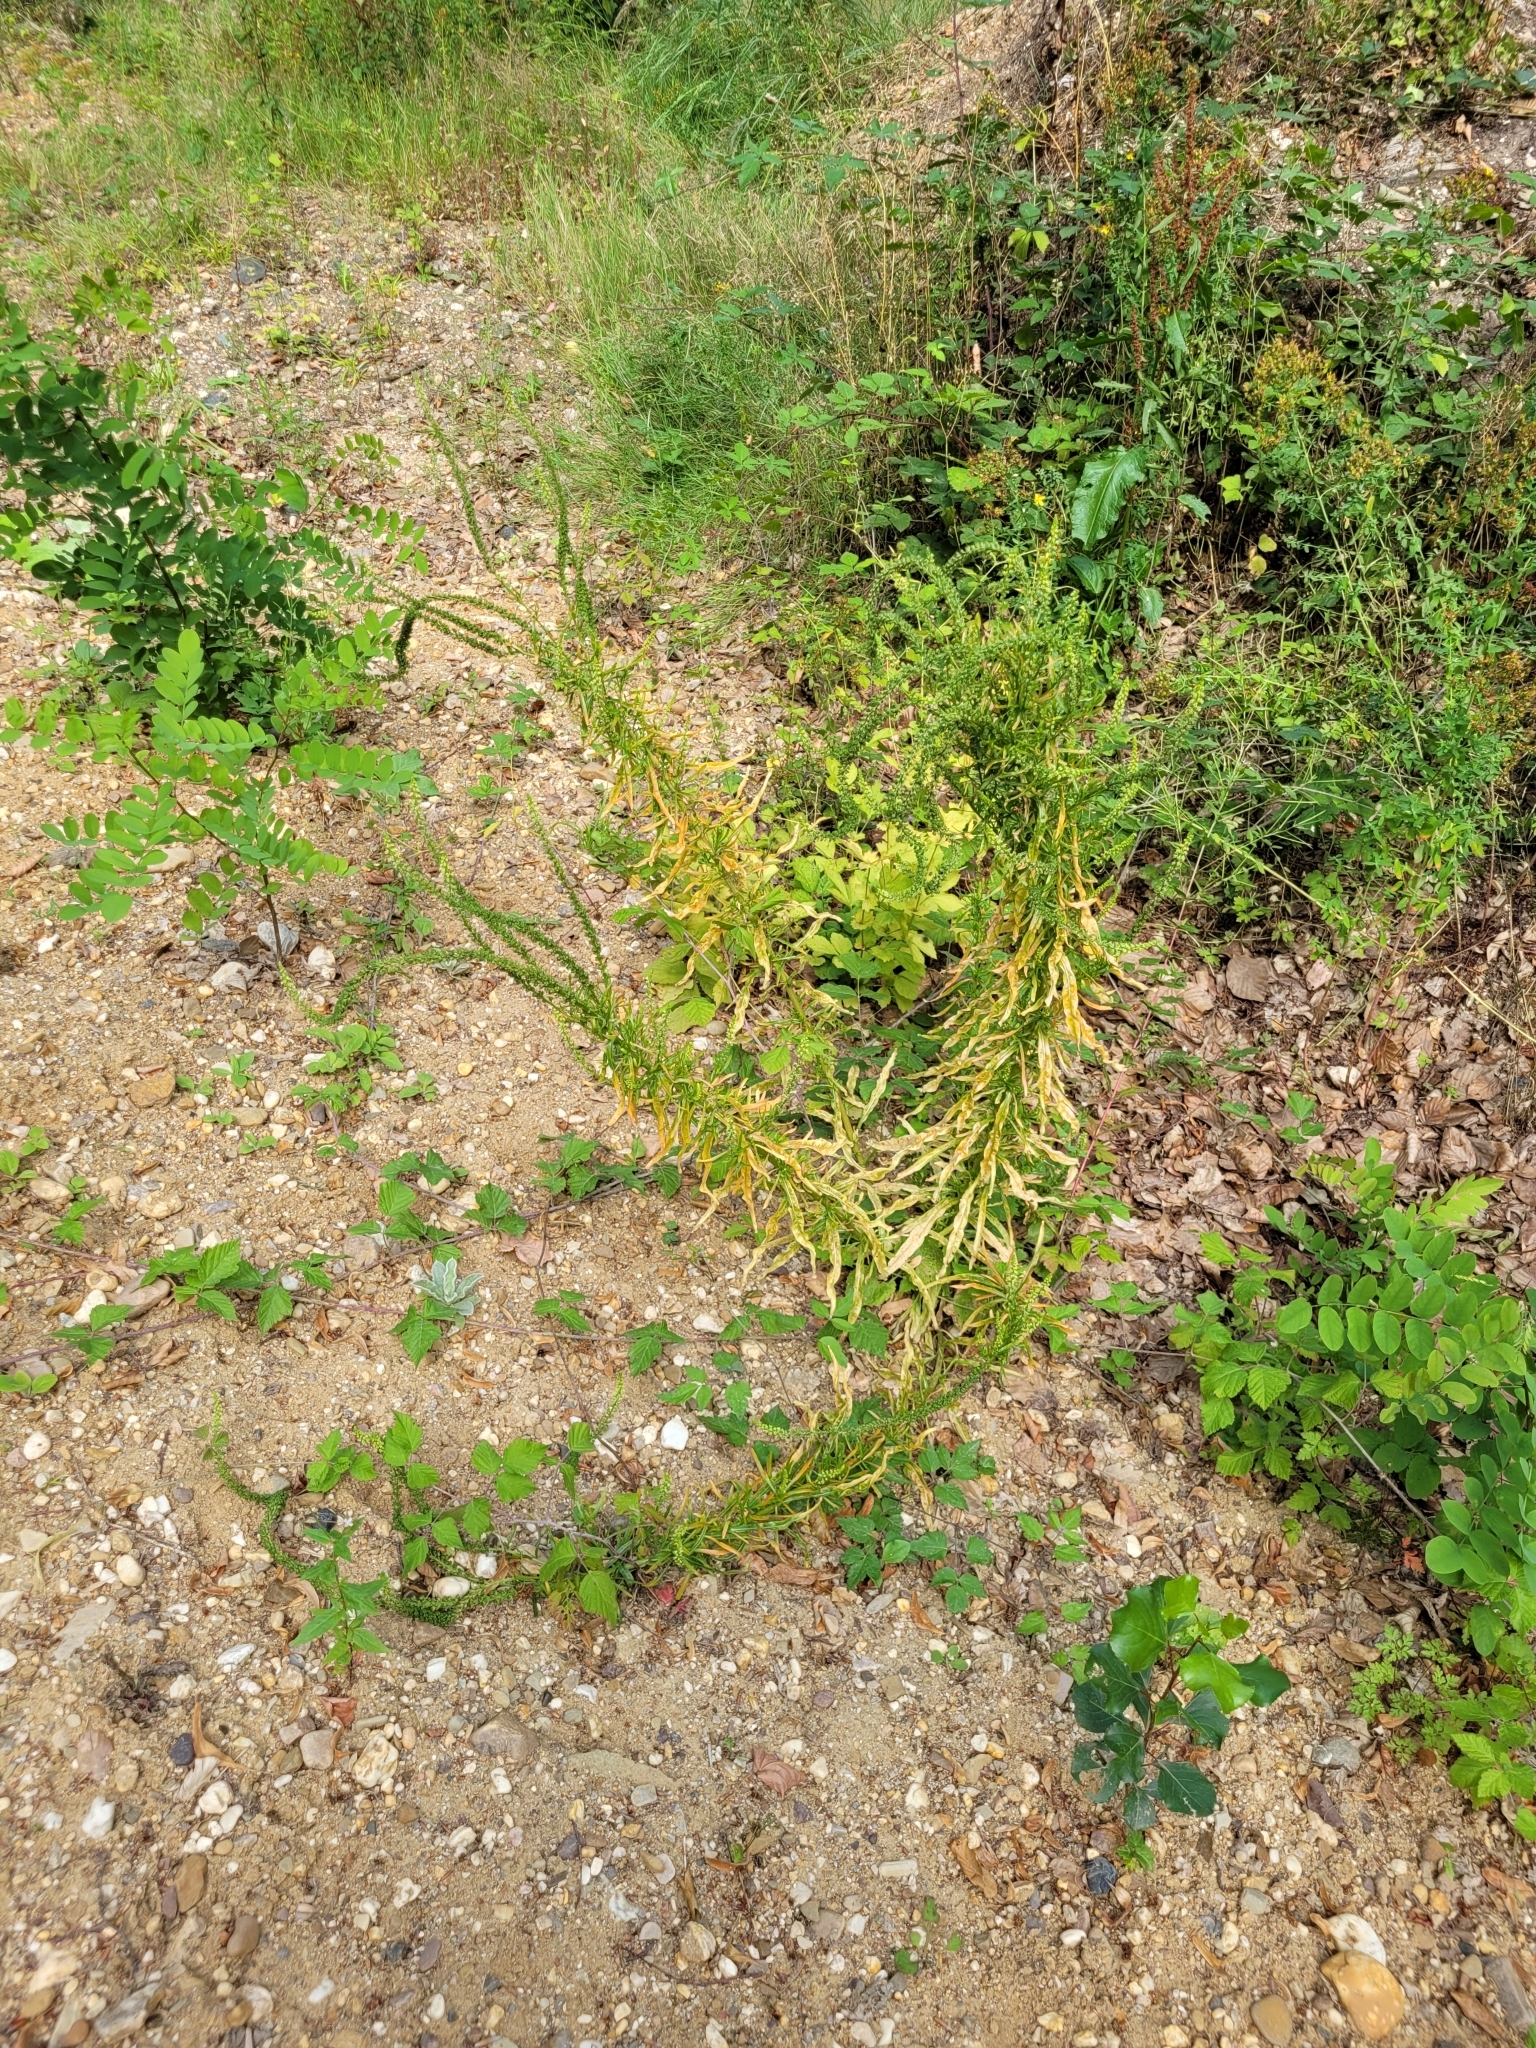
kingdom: Plantae
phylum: Tracheophyta
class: Magnoliopsida
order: Brassicales
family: Resedaceae
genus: Reseda
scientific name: Reseda luteola
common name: Weld
